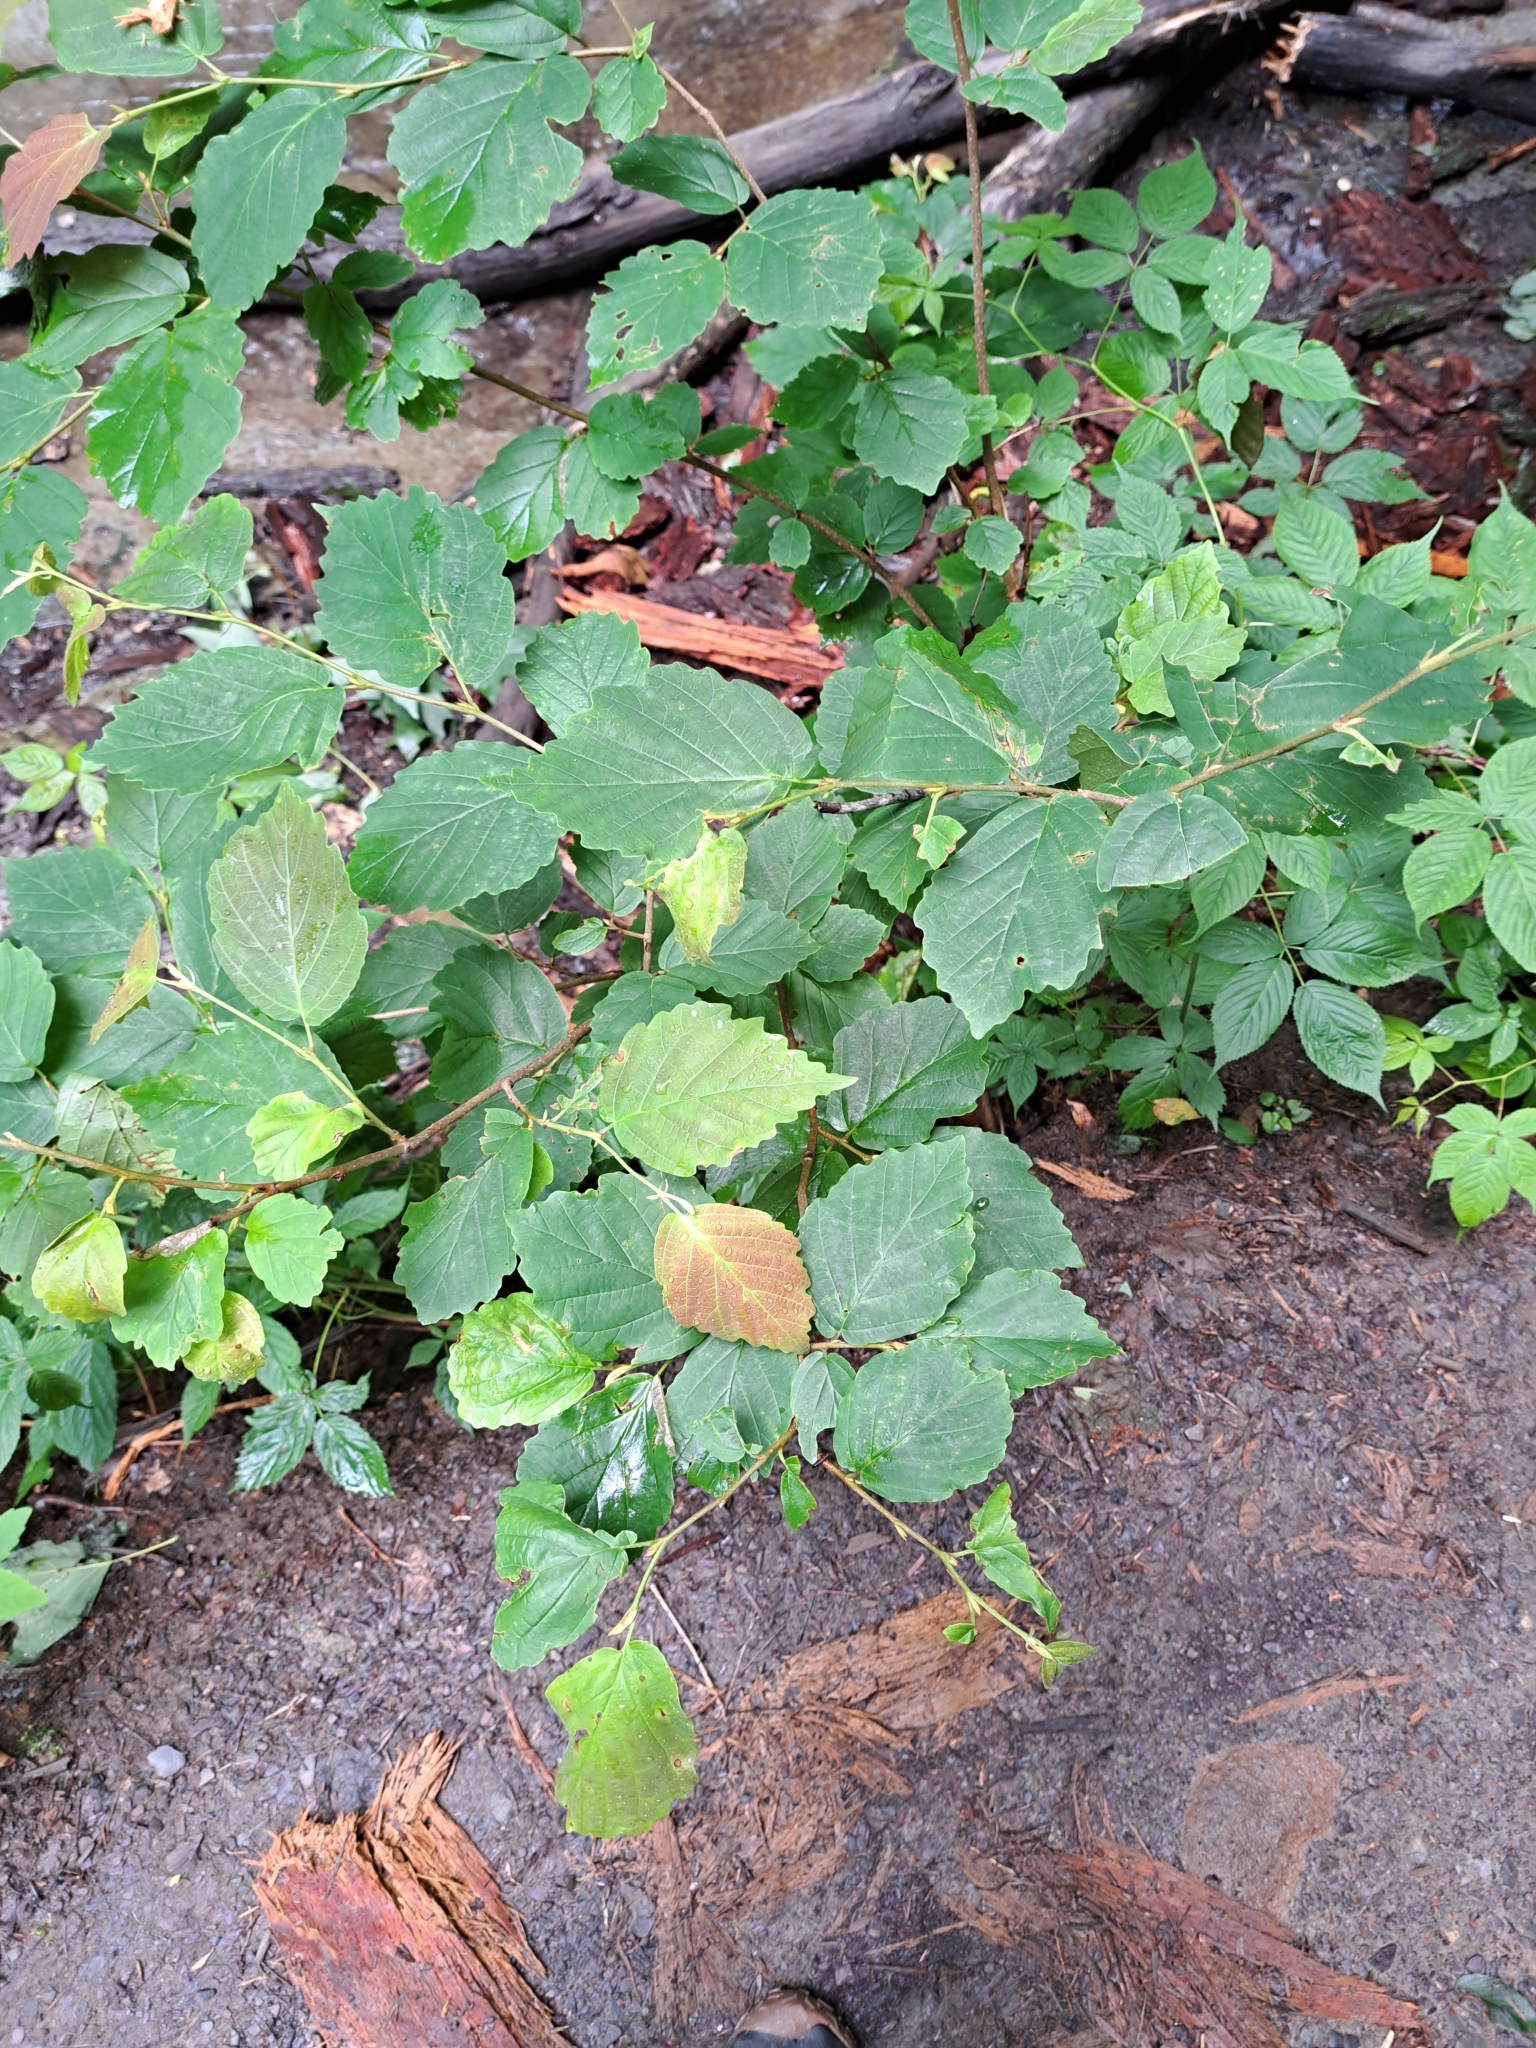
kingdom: Plantae
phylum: Tracheophyta
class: Magnoliopsida
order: Saxifragales
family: Hamamelidaceae
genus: Hamamelis
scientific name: Hamamelis virginiana
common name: Witch-hazel
